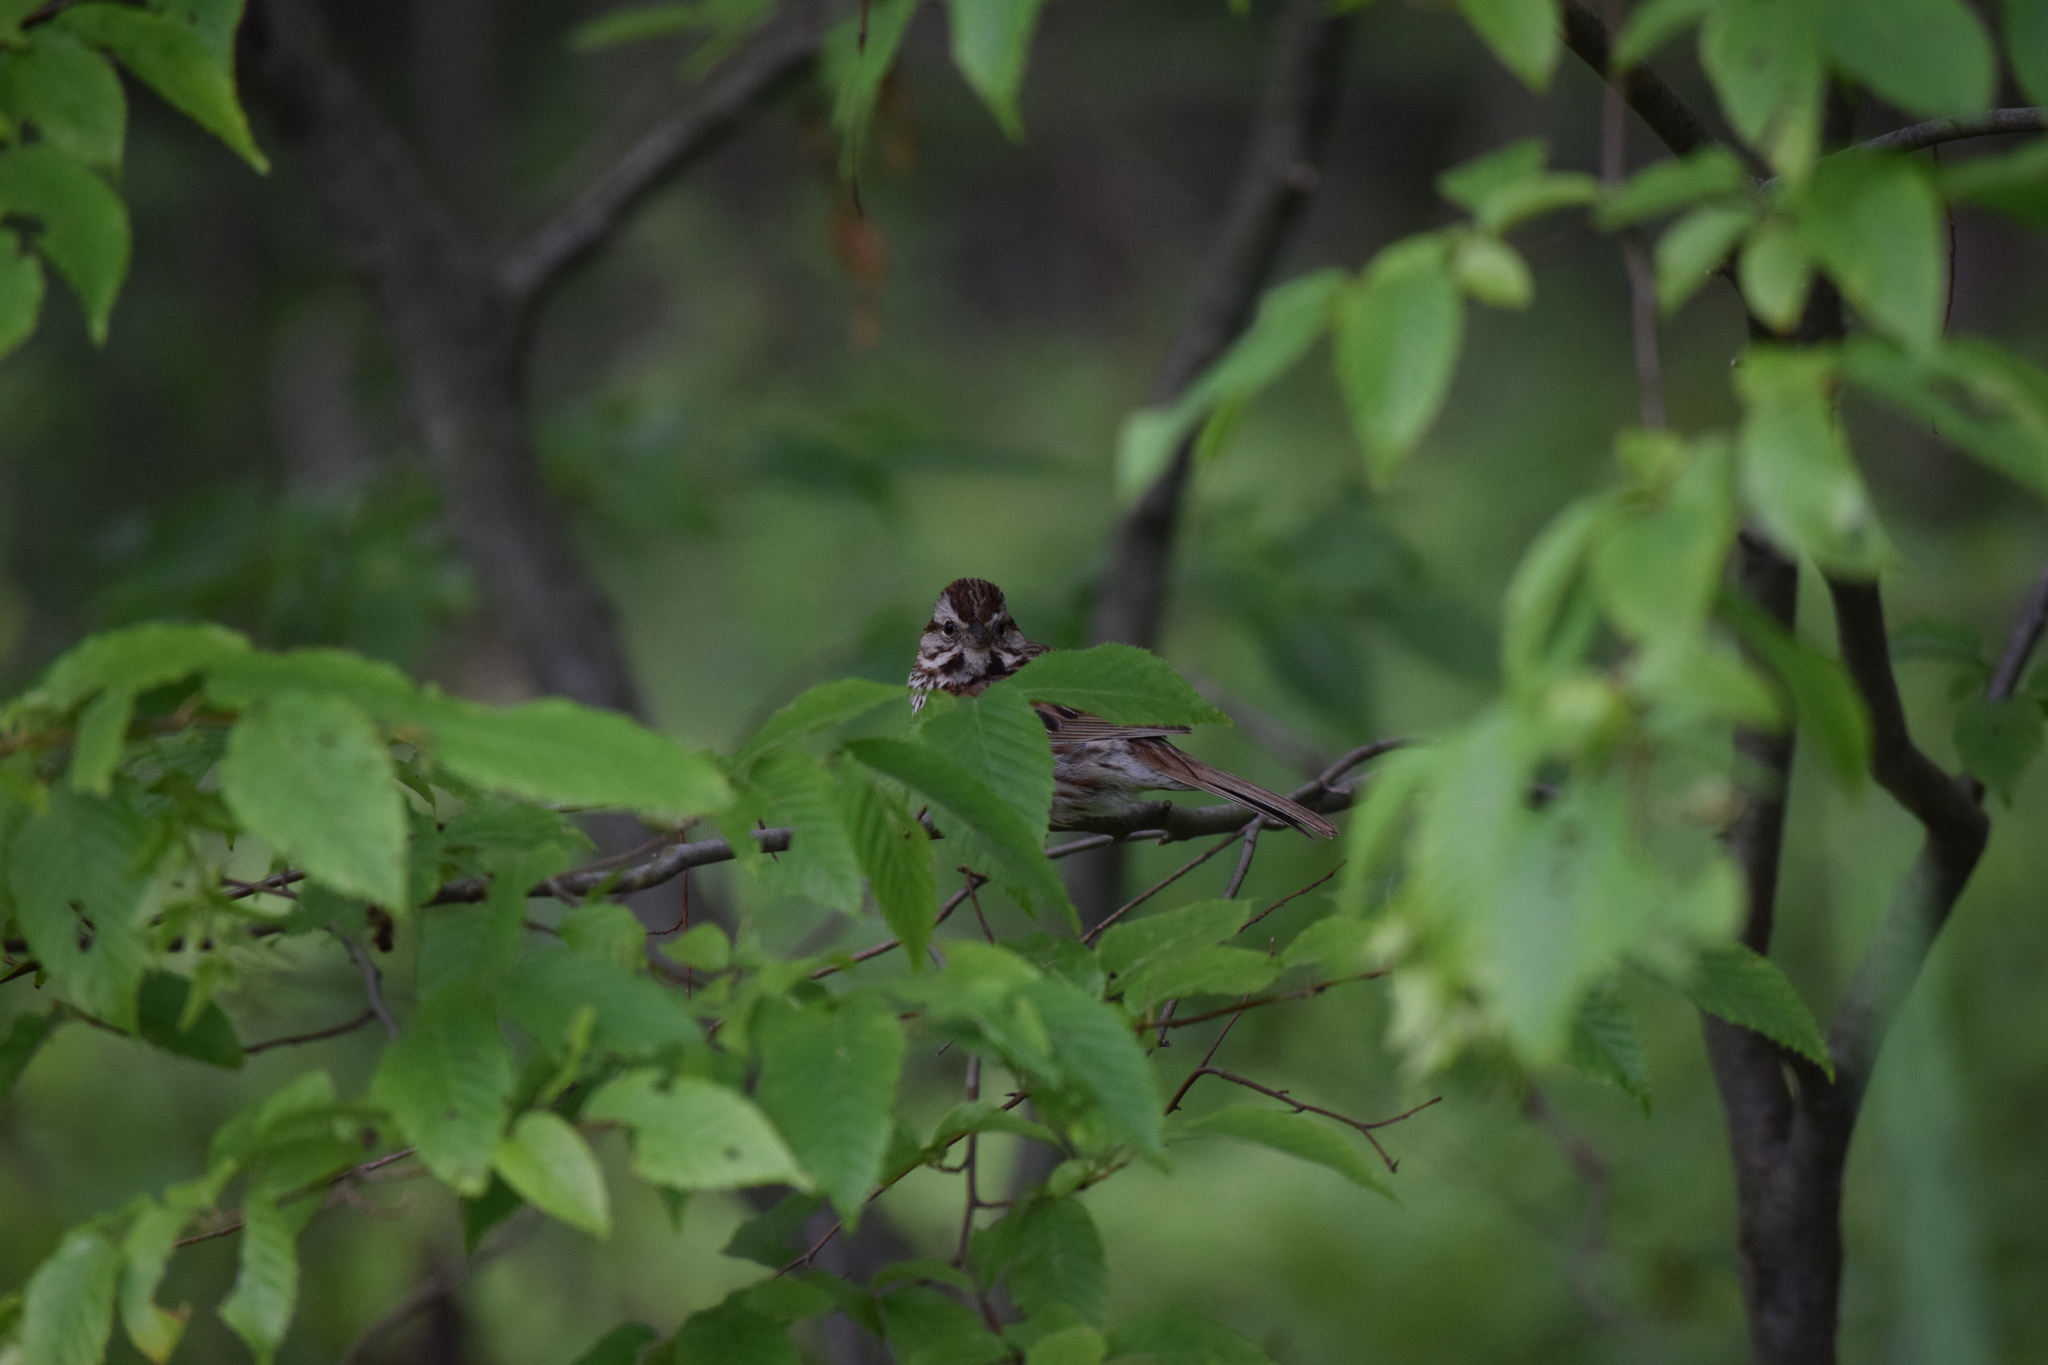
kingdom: Animalia
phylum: Chordata
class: Aves
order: Passeriformes
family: Passerellidae
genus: Melospiza
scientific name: Melospiza melodia
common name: Song sparrow
